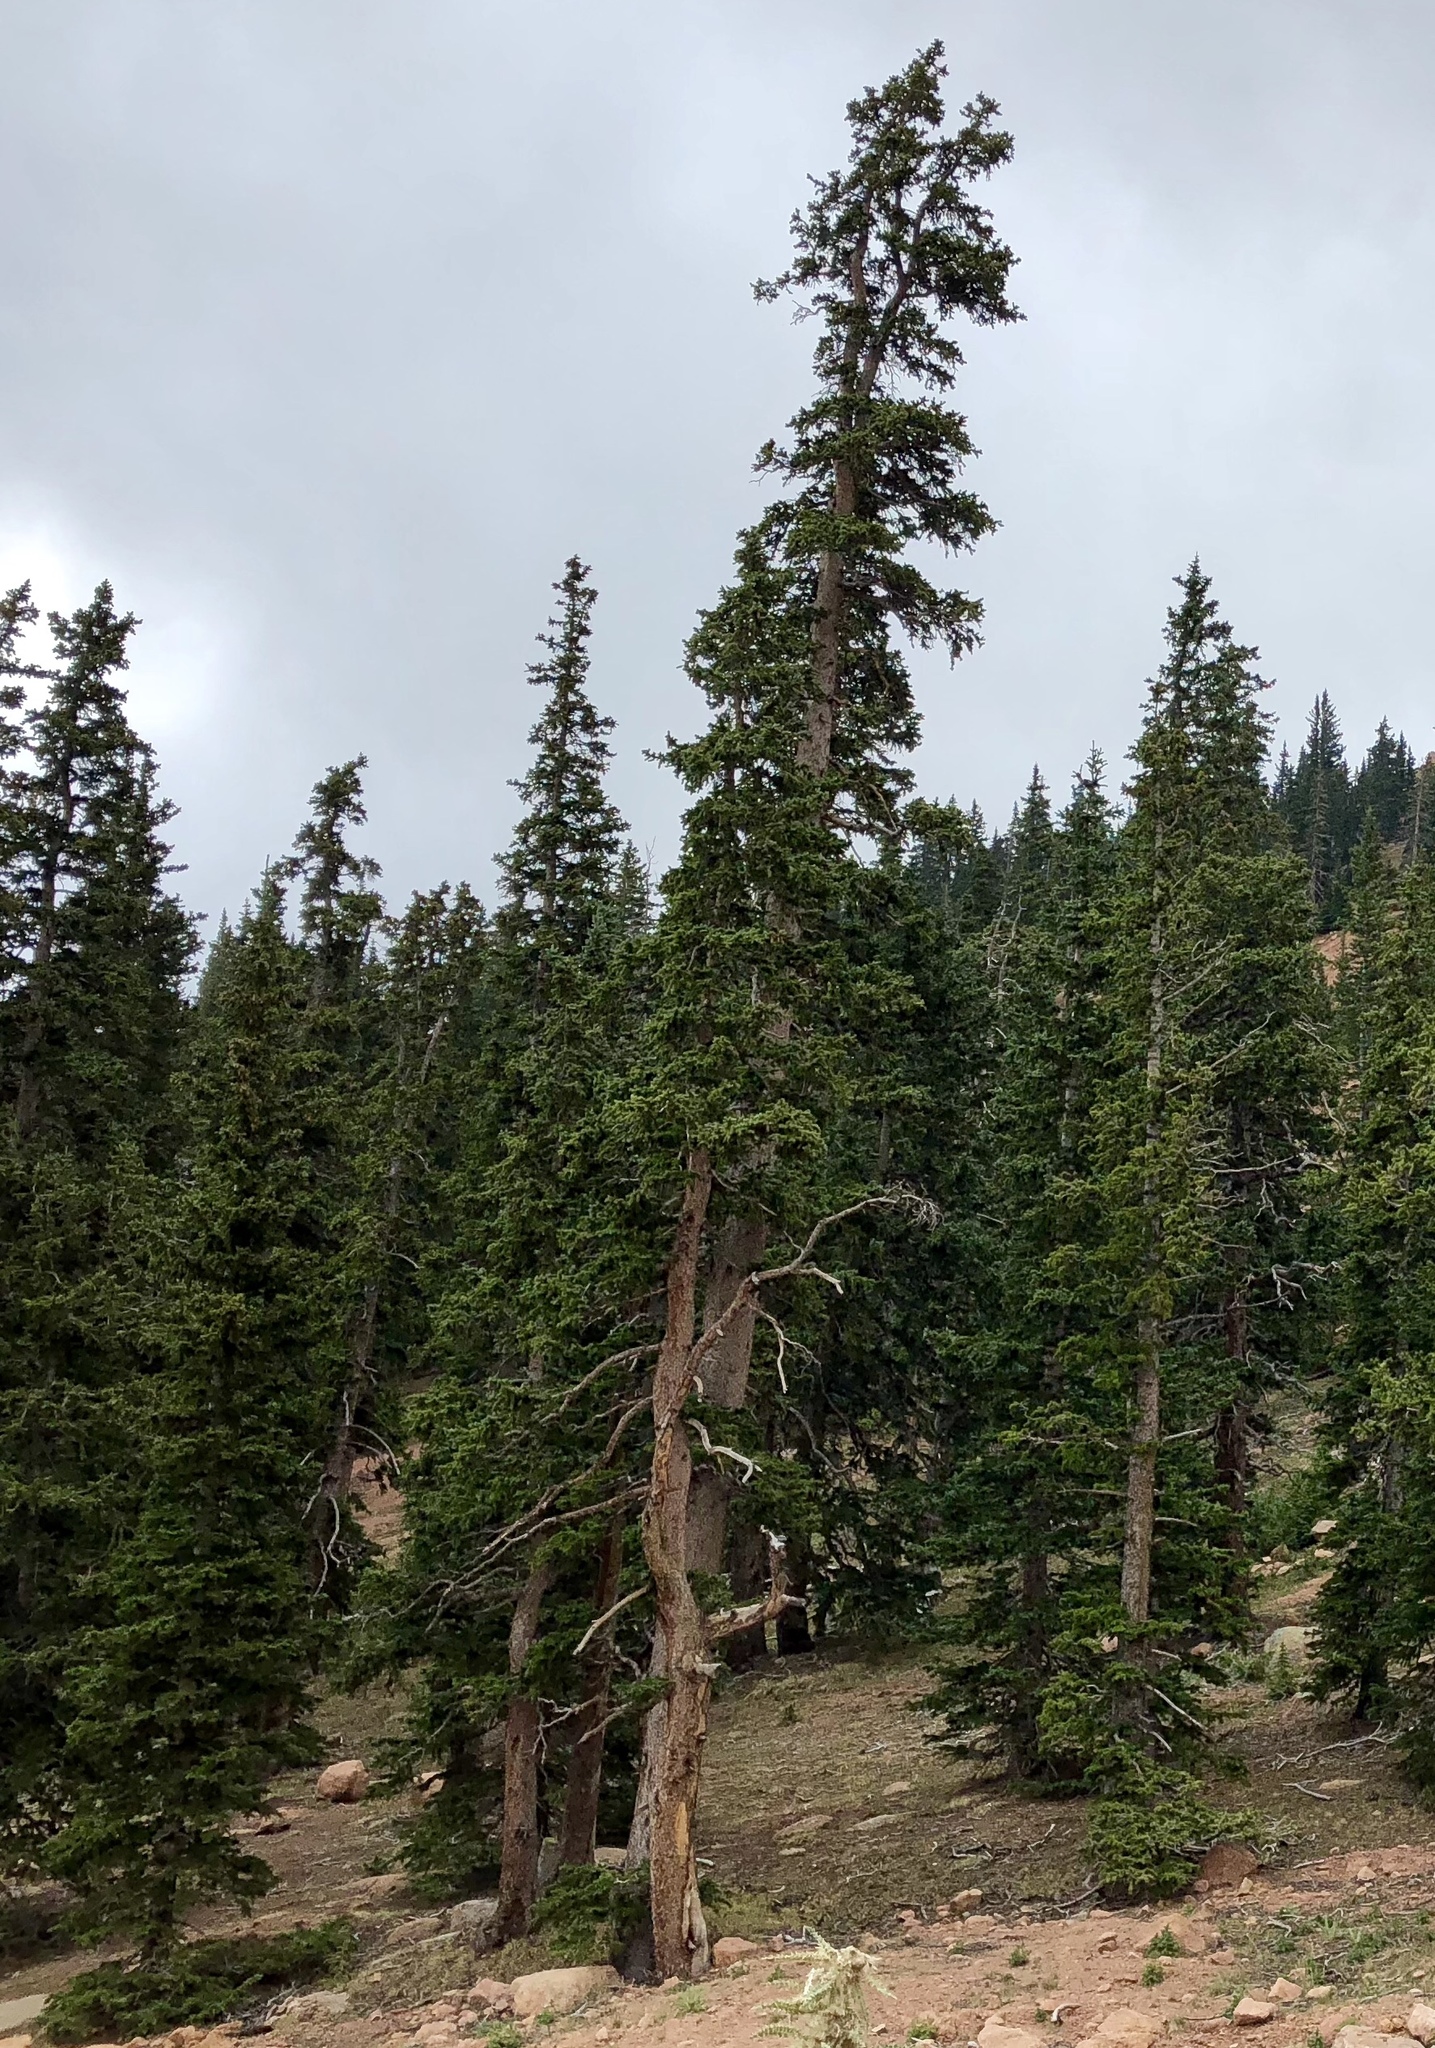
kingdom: Plantae
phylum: Tracheophyta
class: Pinopsida
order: Pinales
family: Pinaceae
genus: Picea
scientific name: Picea engelmannii
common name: Engelmann spruce
